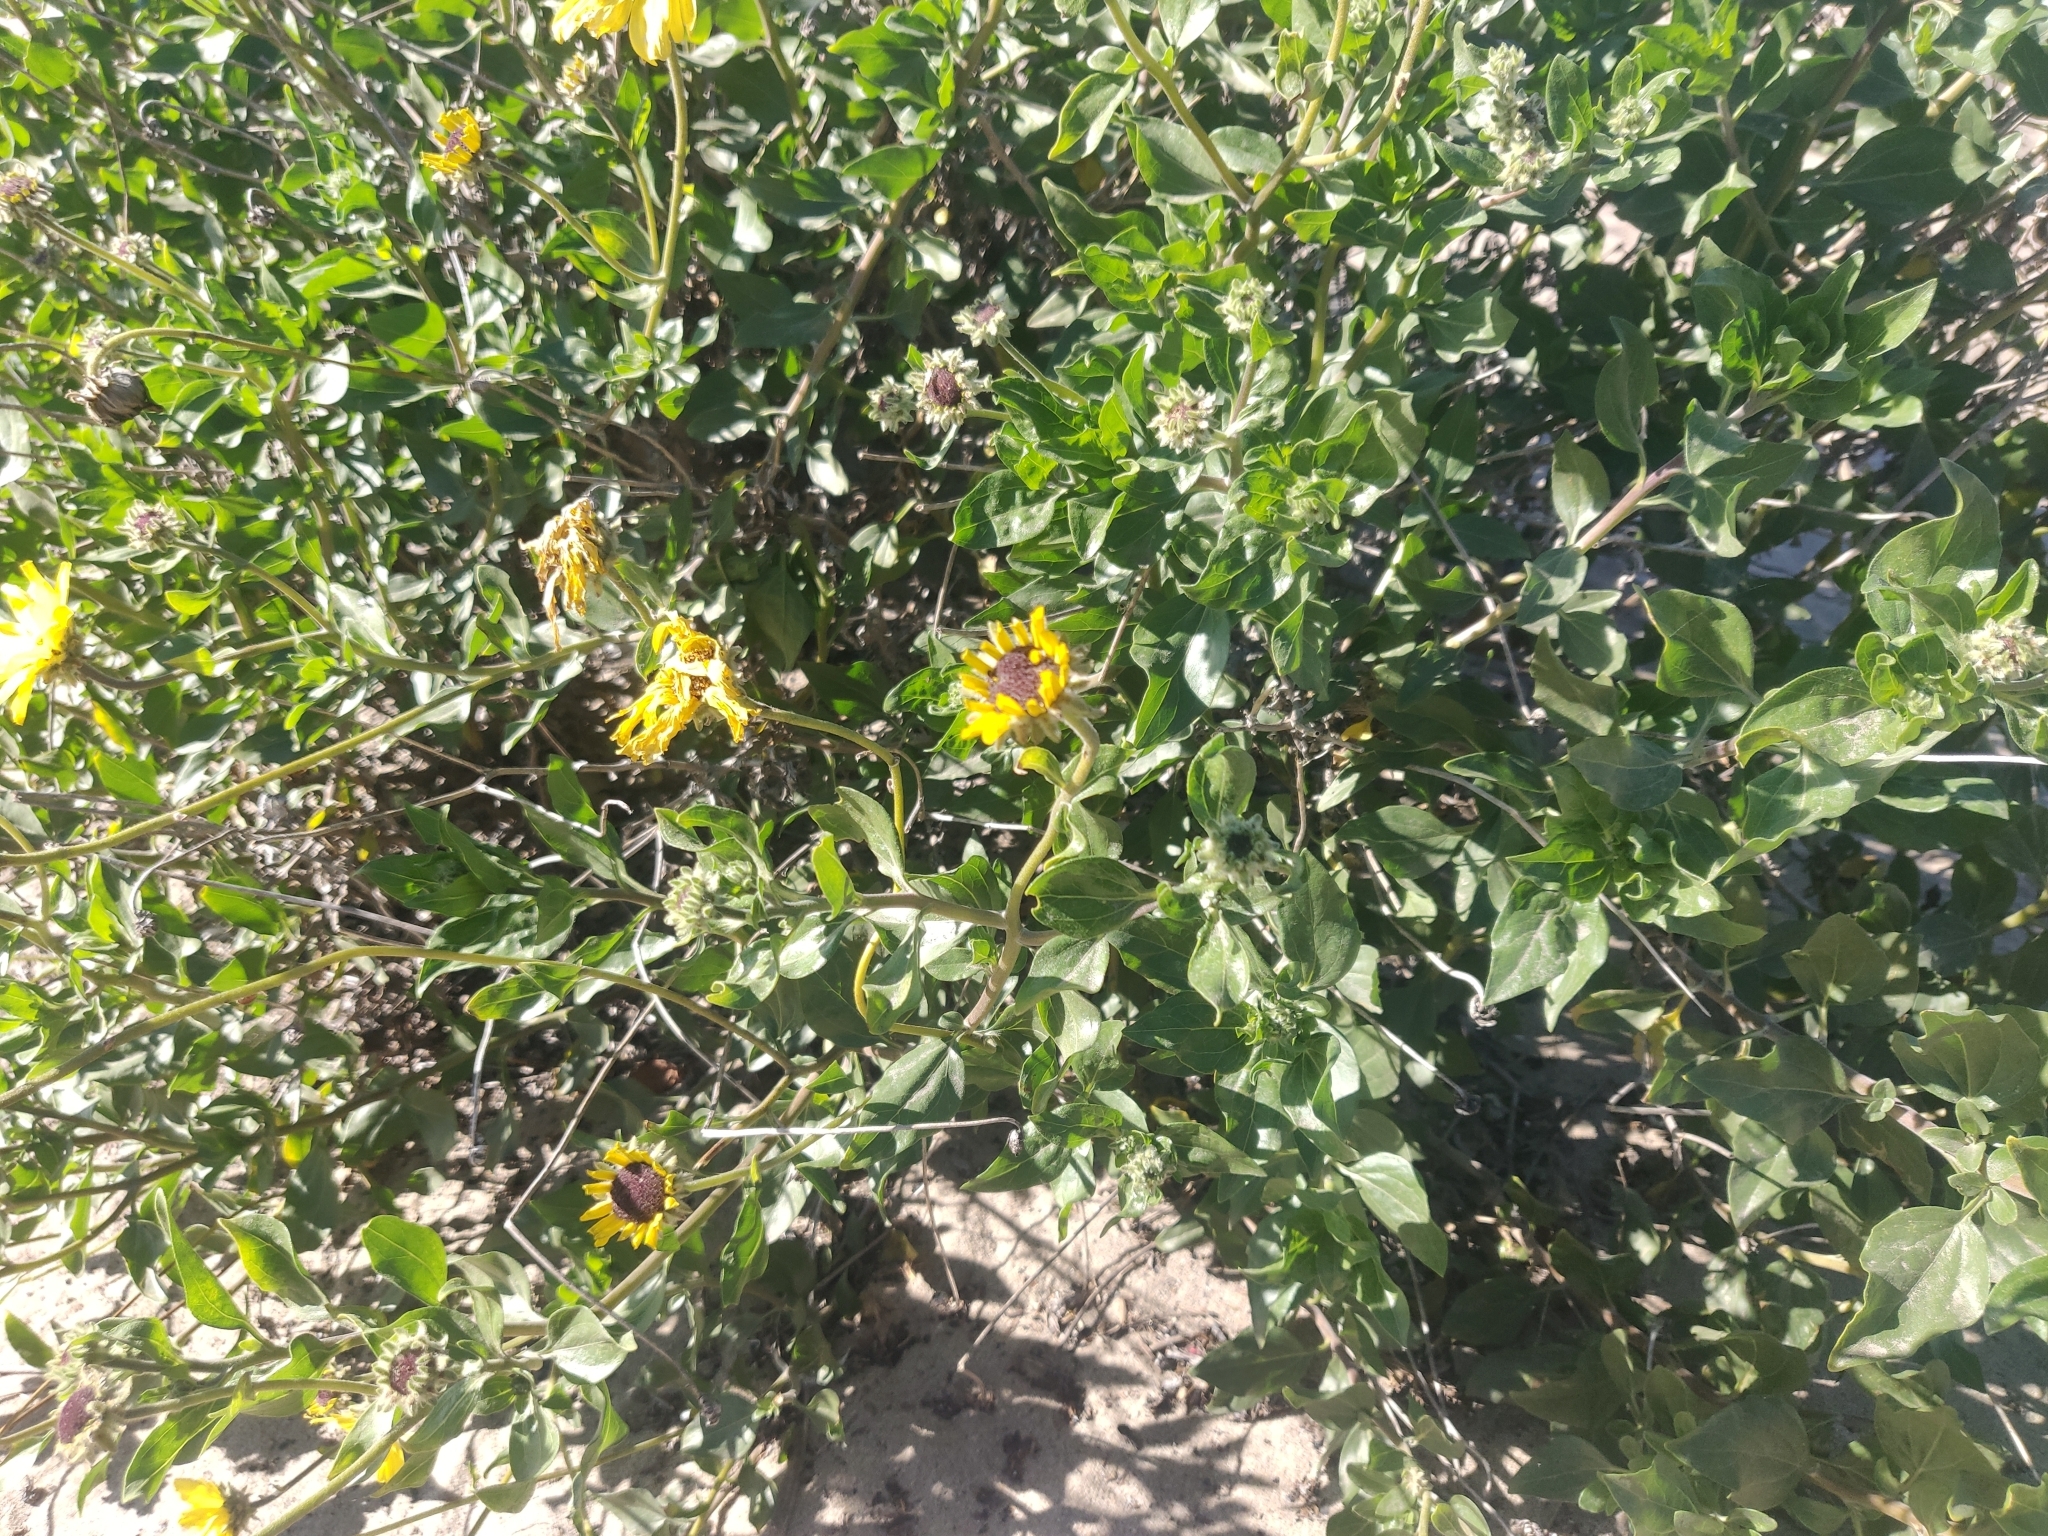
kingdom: Plantae
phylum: Tracheophyta
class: Magnoliopsida
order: Asterales
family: Asteraceae
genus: Encelia
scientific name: Encelia californica
